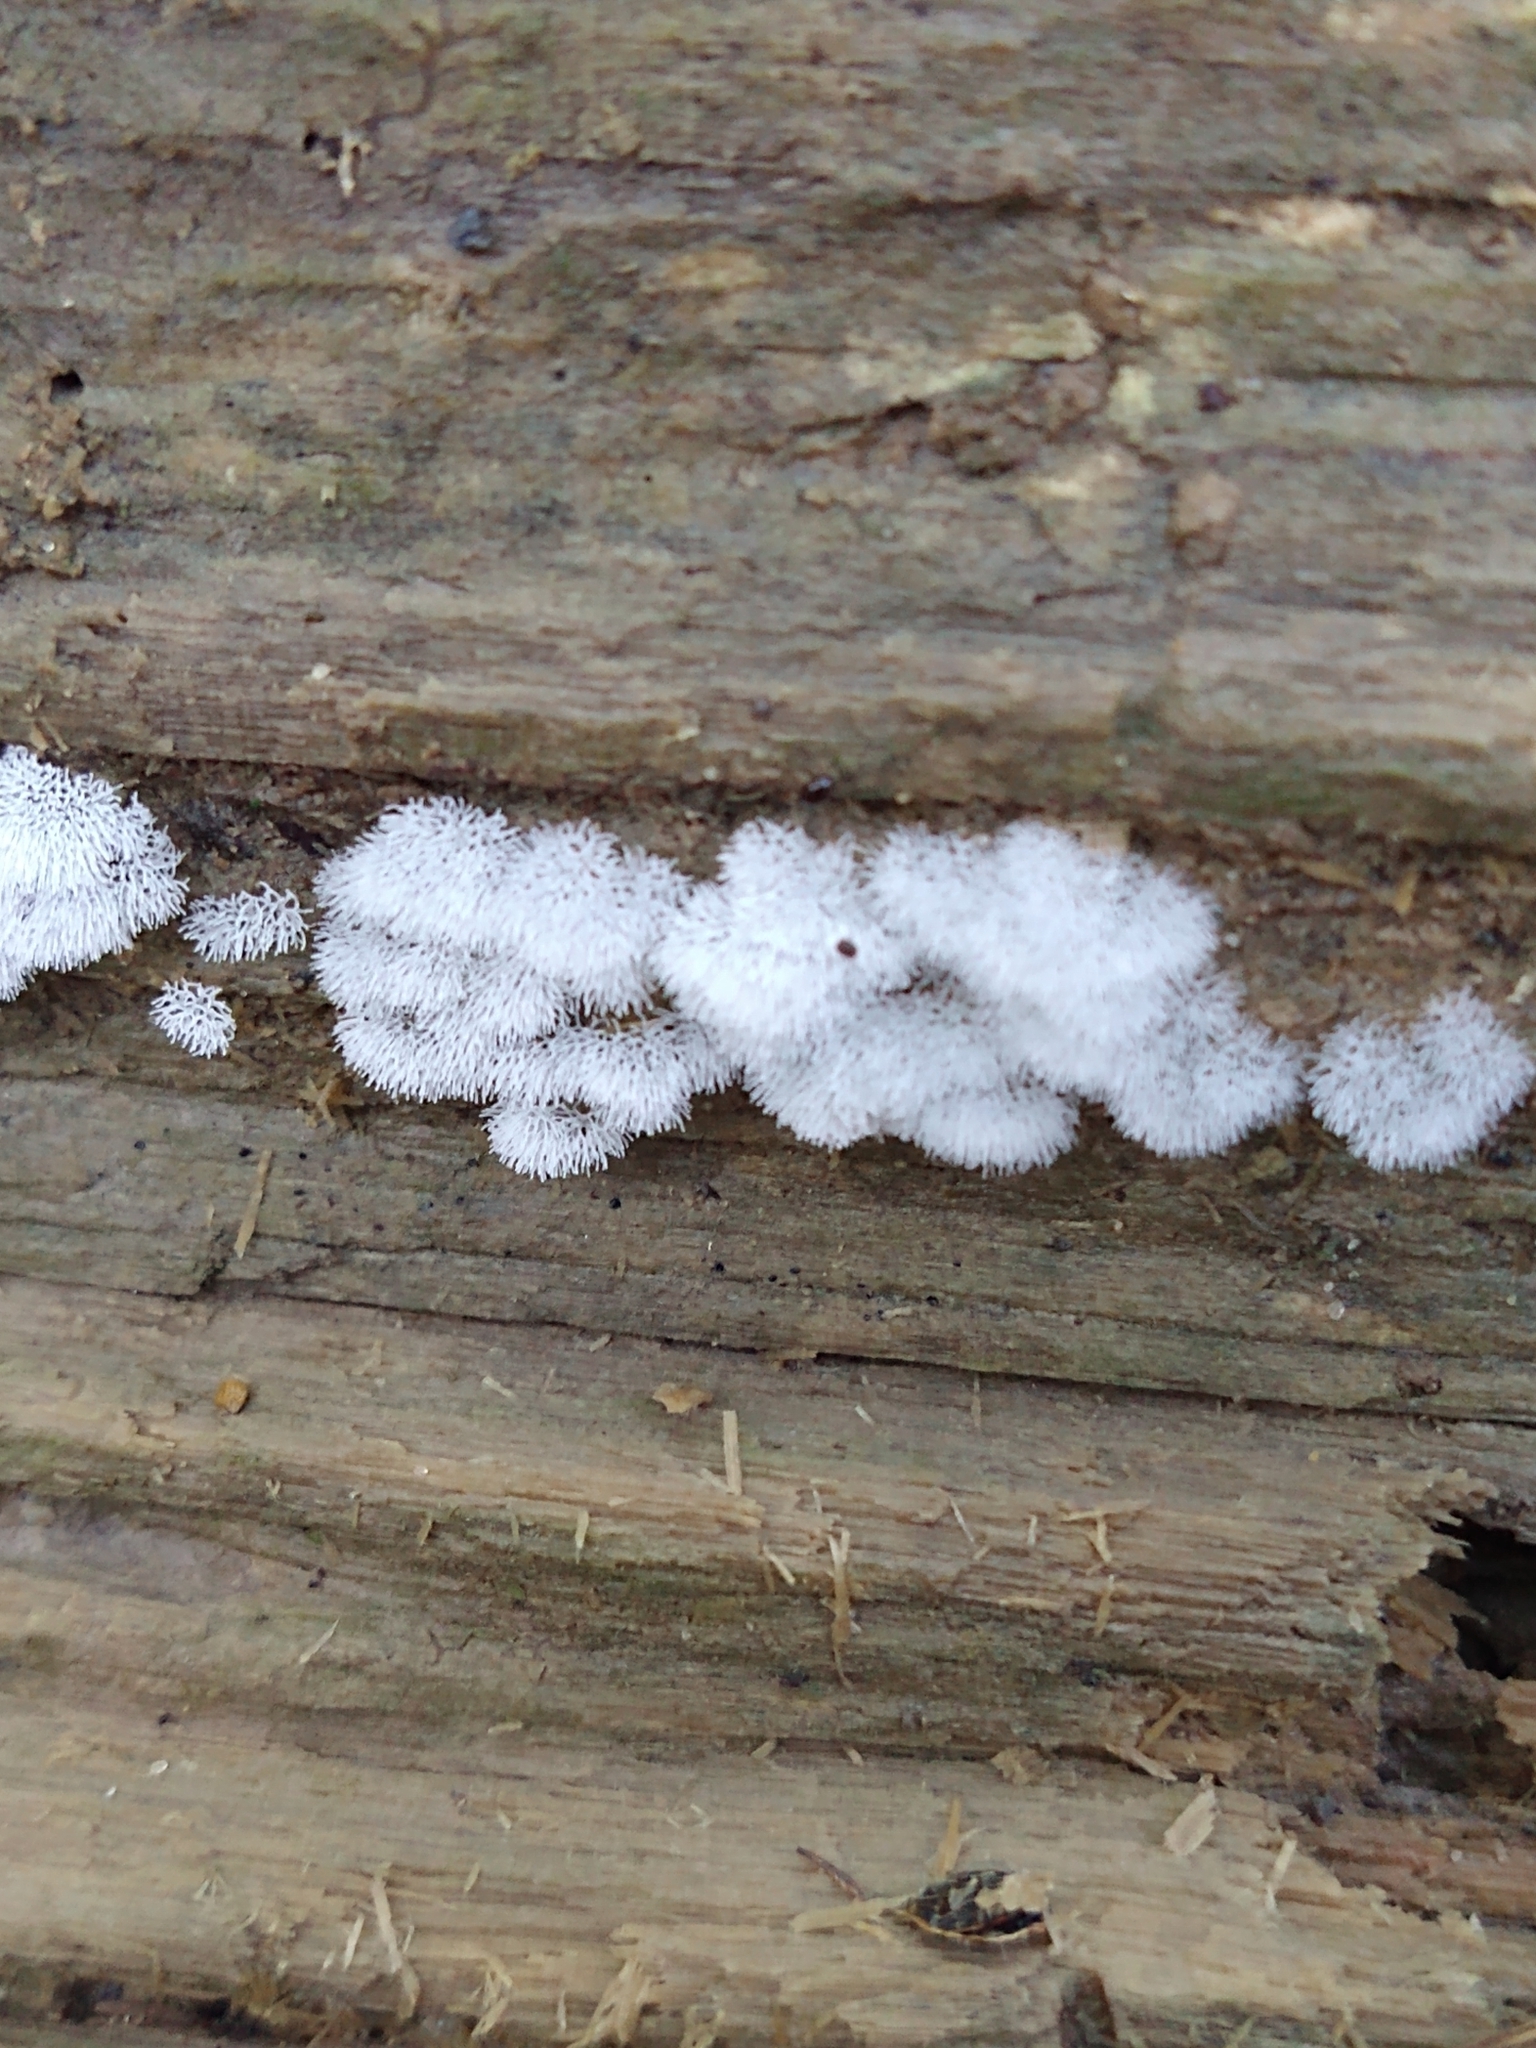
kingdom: Protozoa
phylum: Mycetozoa
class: Protosteliomycetes
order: Ceratiomyxales
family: Ceratiomyxaceae
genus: Ceratiomyxa
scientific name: Ceratiomyxa fruticulosa
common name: Honeycomb coral slime mold
